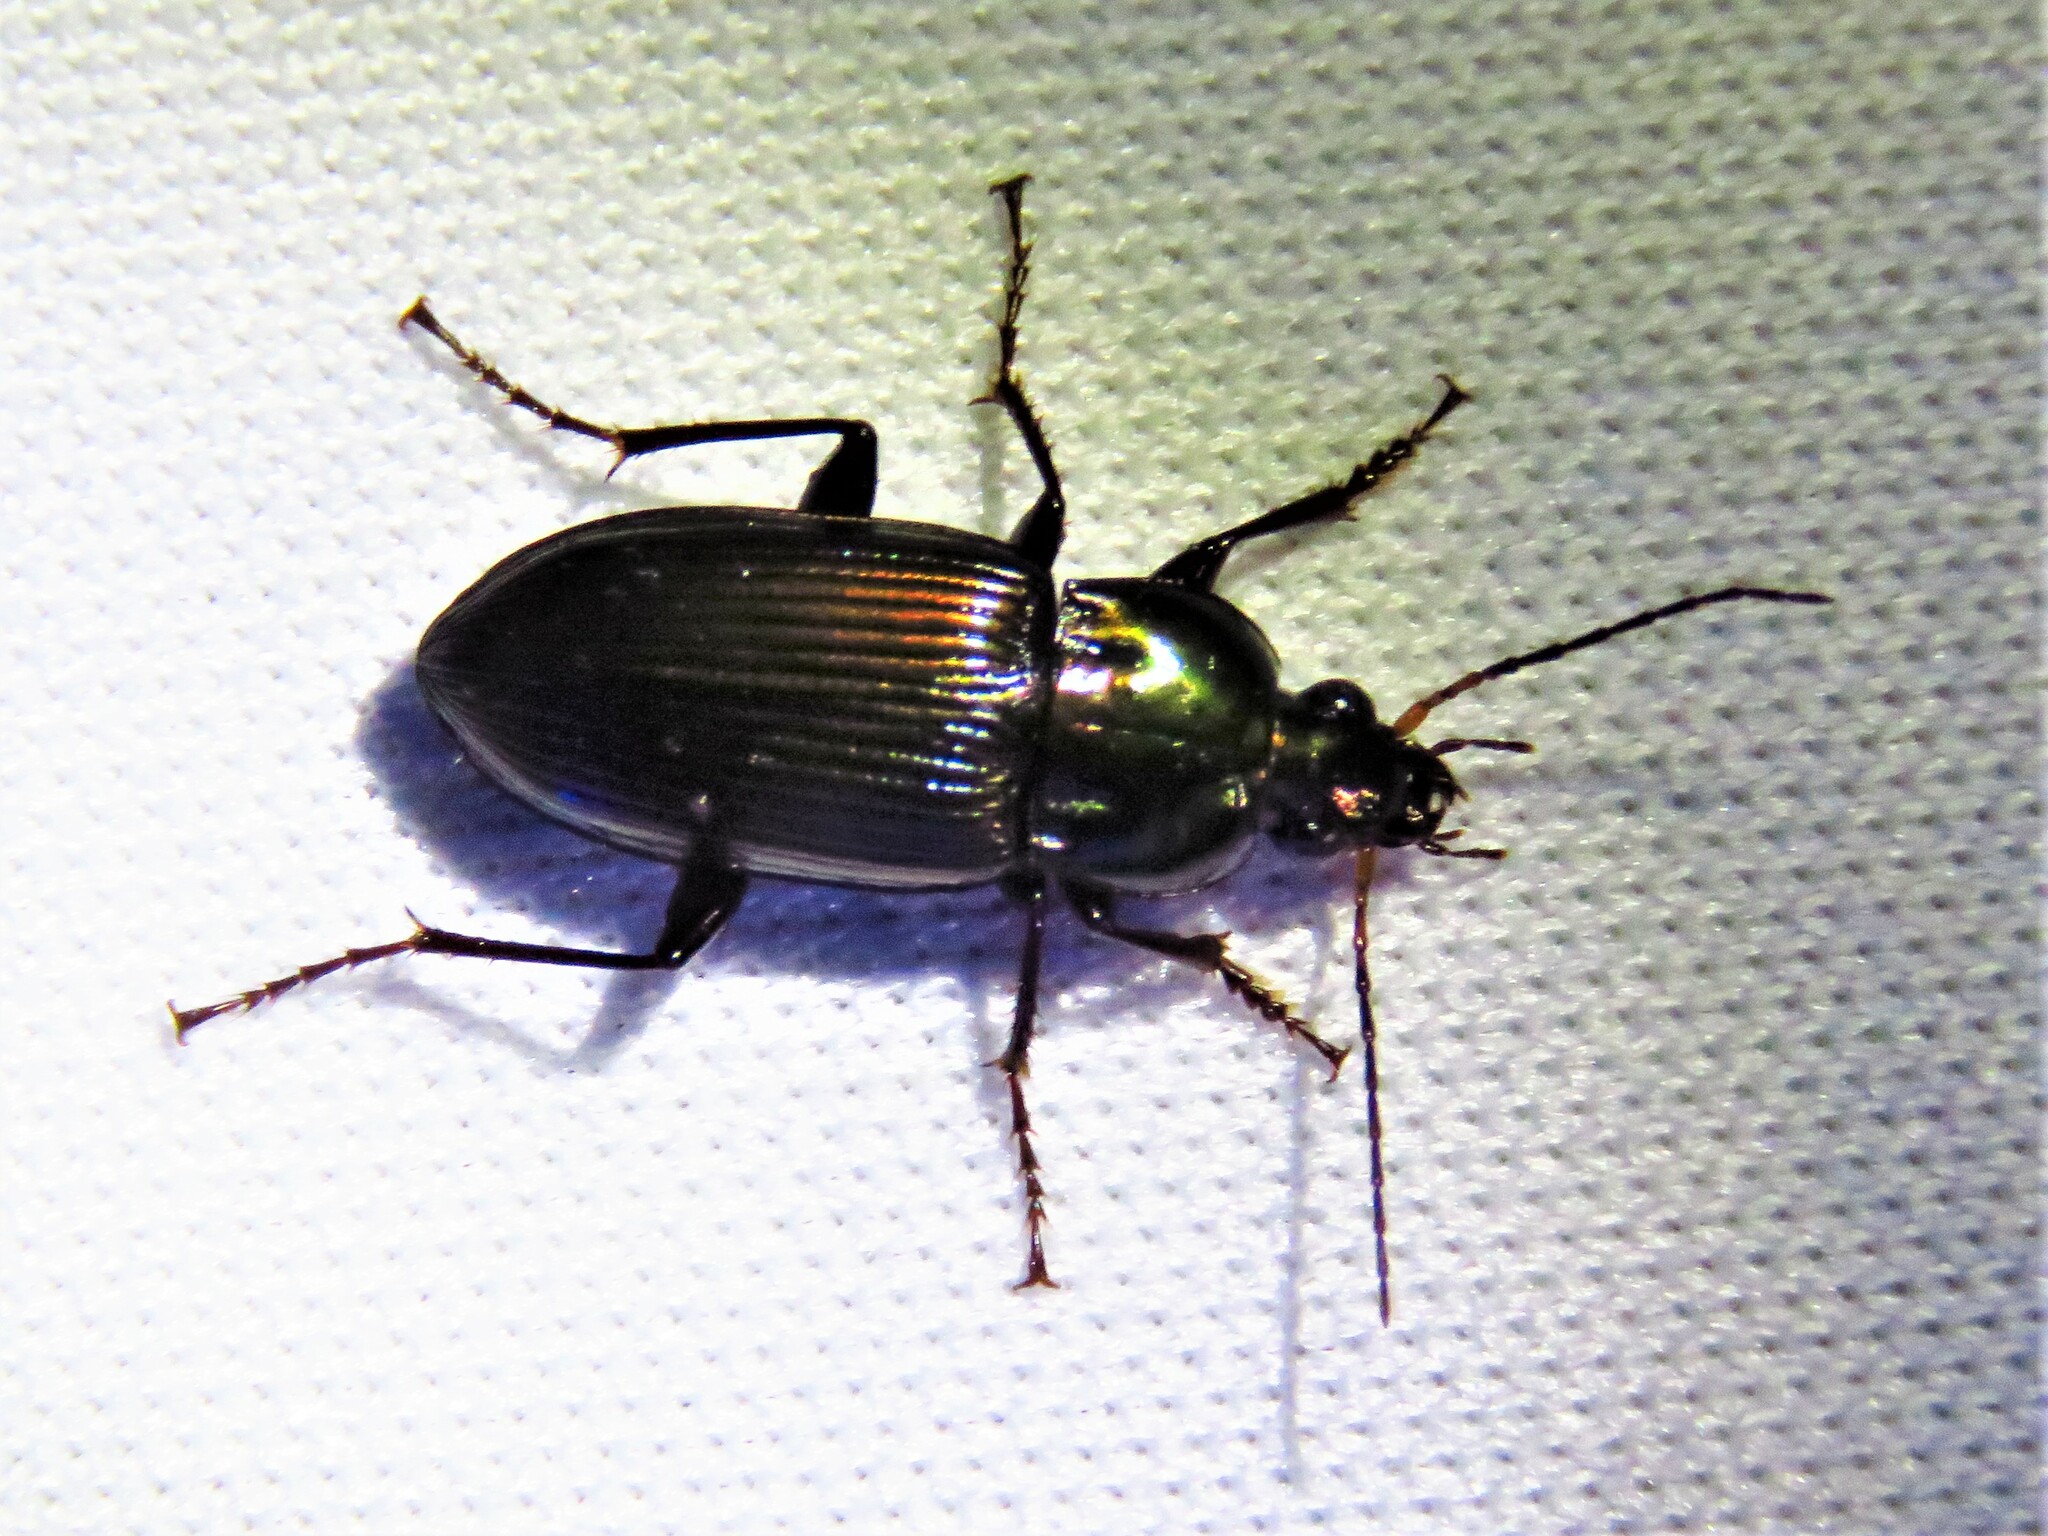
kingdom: Animalia
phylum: Arthropoda
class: Insecta
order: Coleoptera
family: Carabidae
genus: Poecilus
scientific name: Poecilus chalcites
